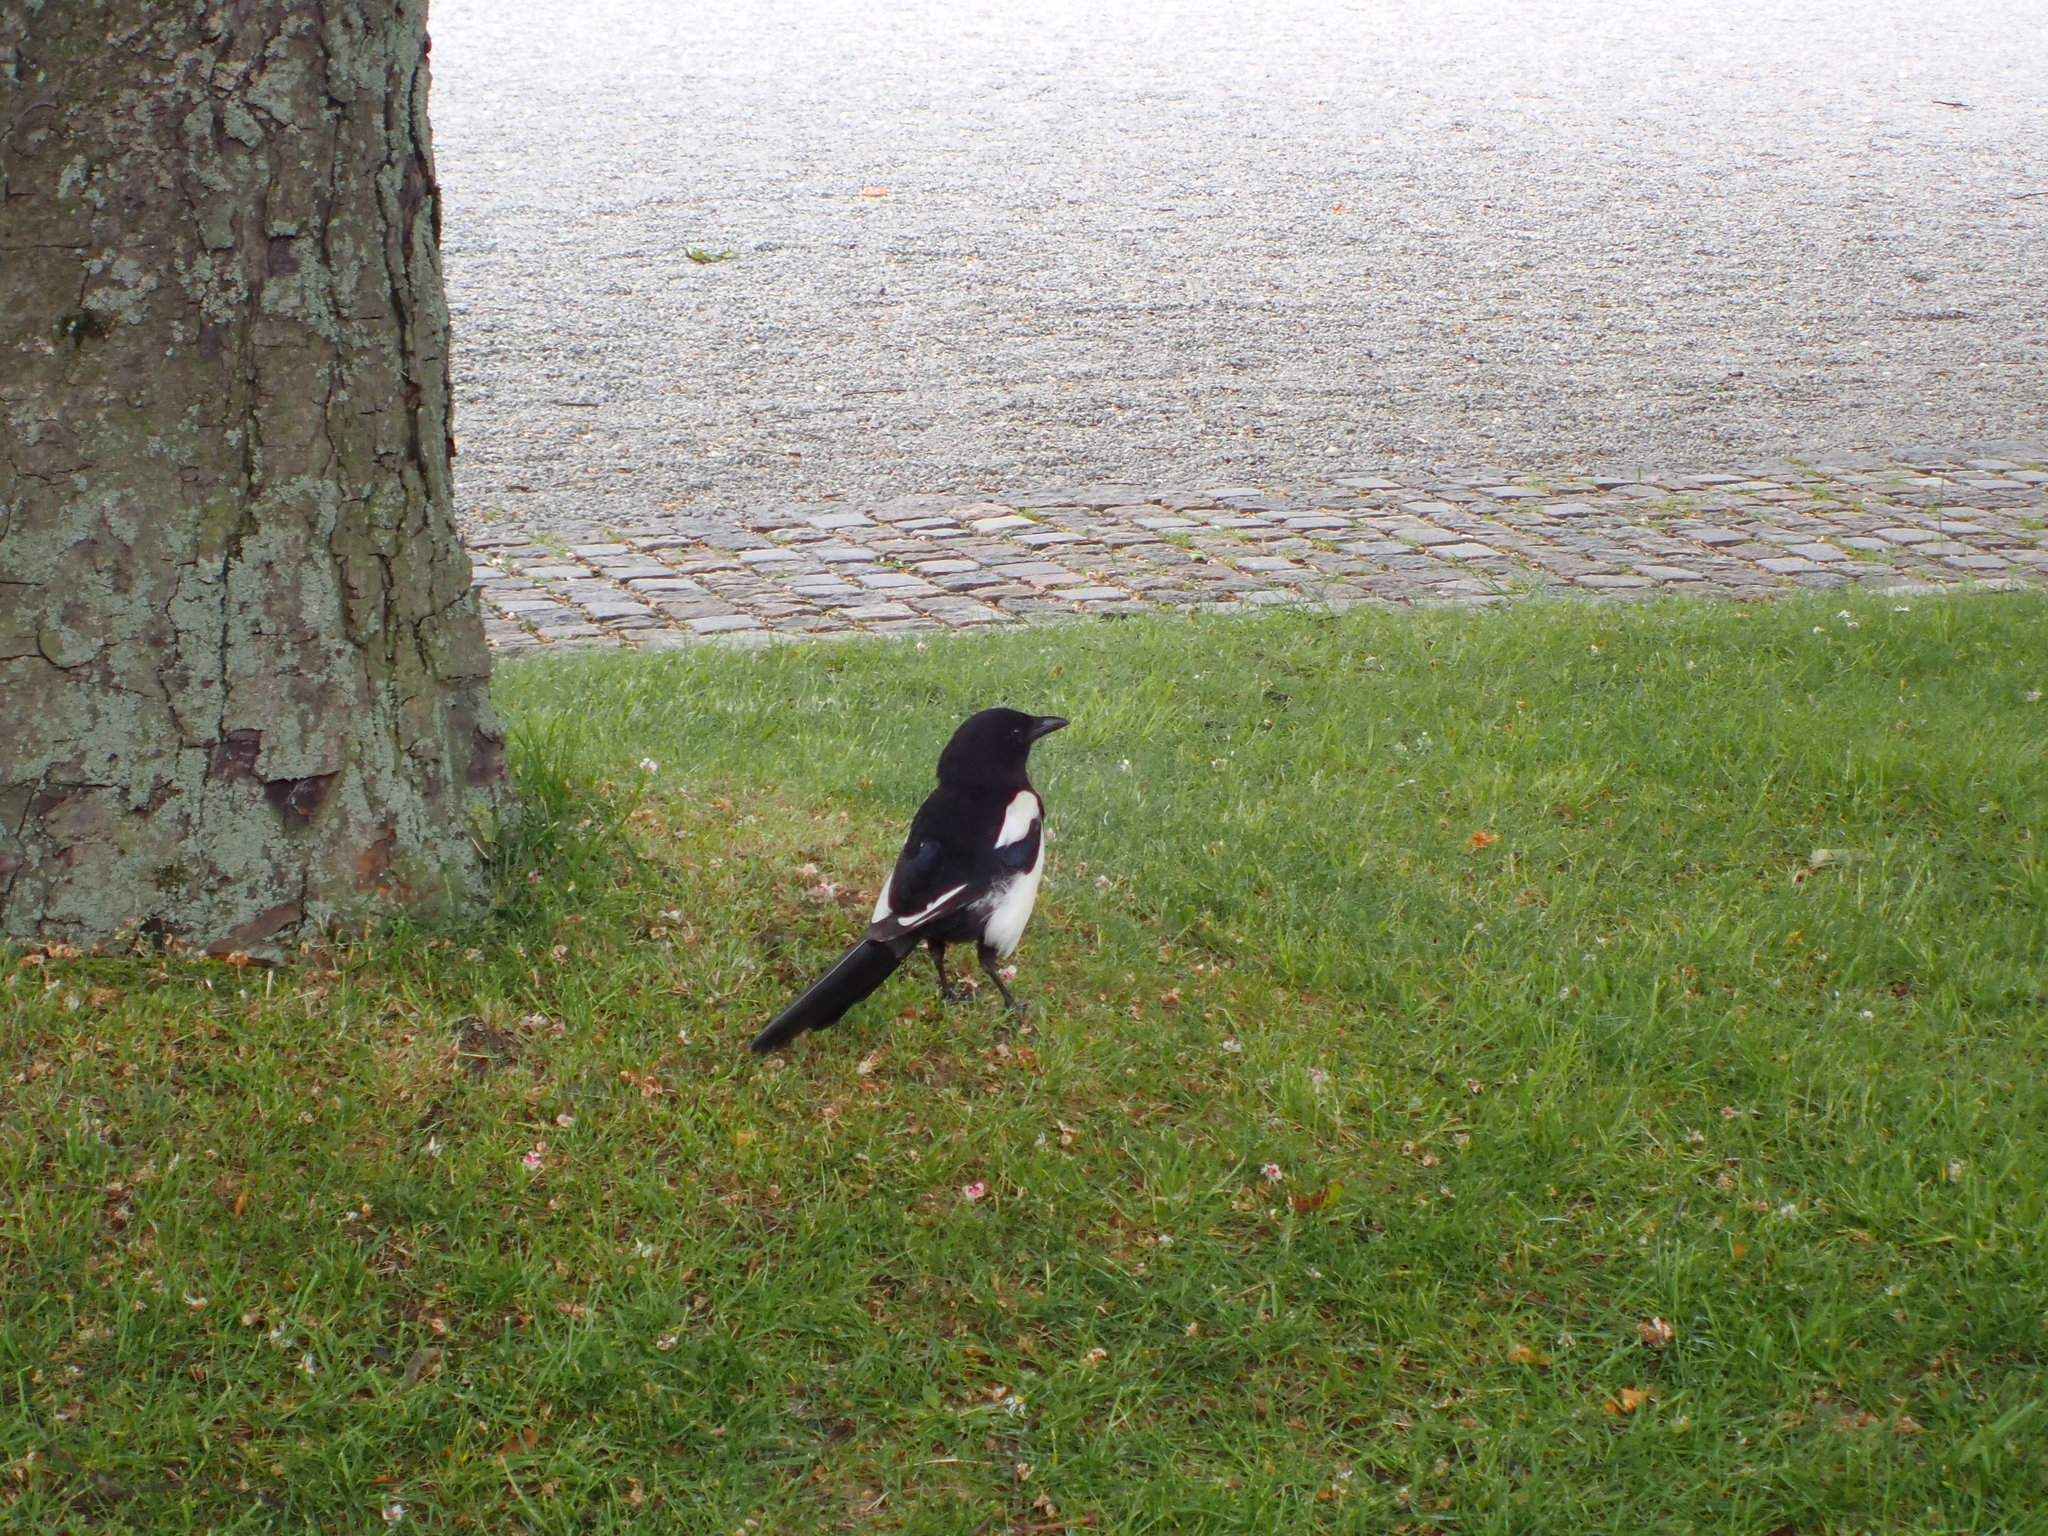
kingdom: Animalia
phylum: Chordata
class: Aves
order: Passeriformes
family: Corvidae
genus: Pica
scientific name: Pica pica
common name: Eurasian magpie
